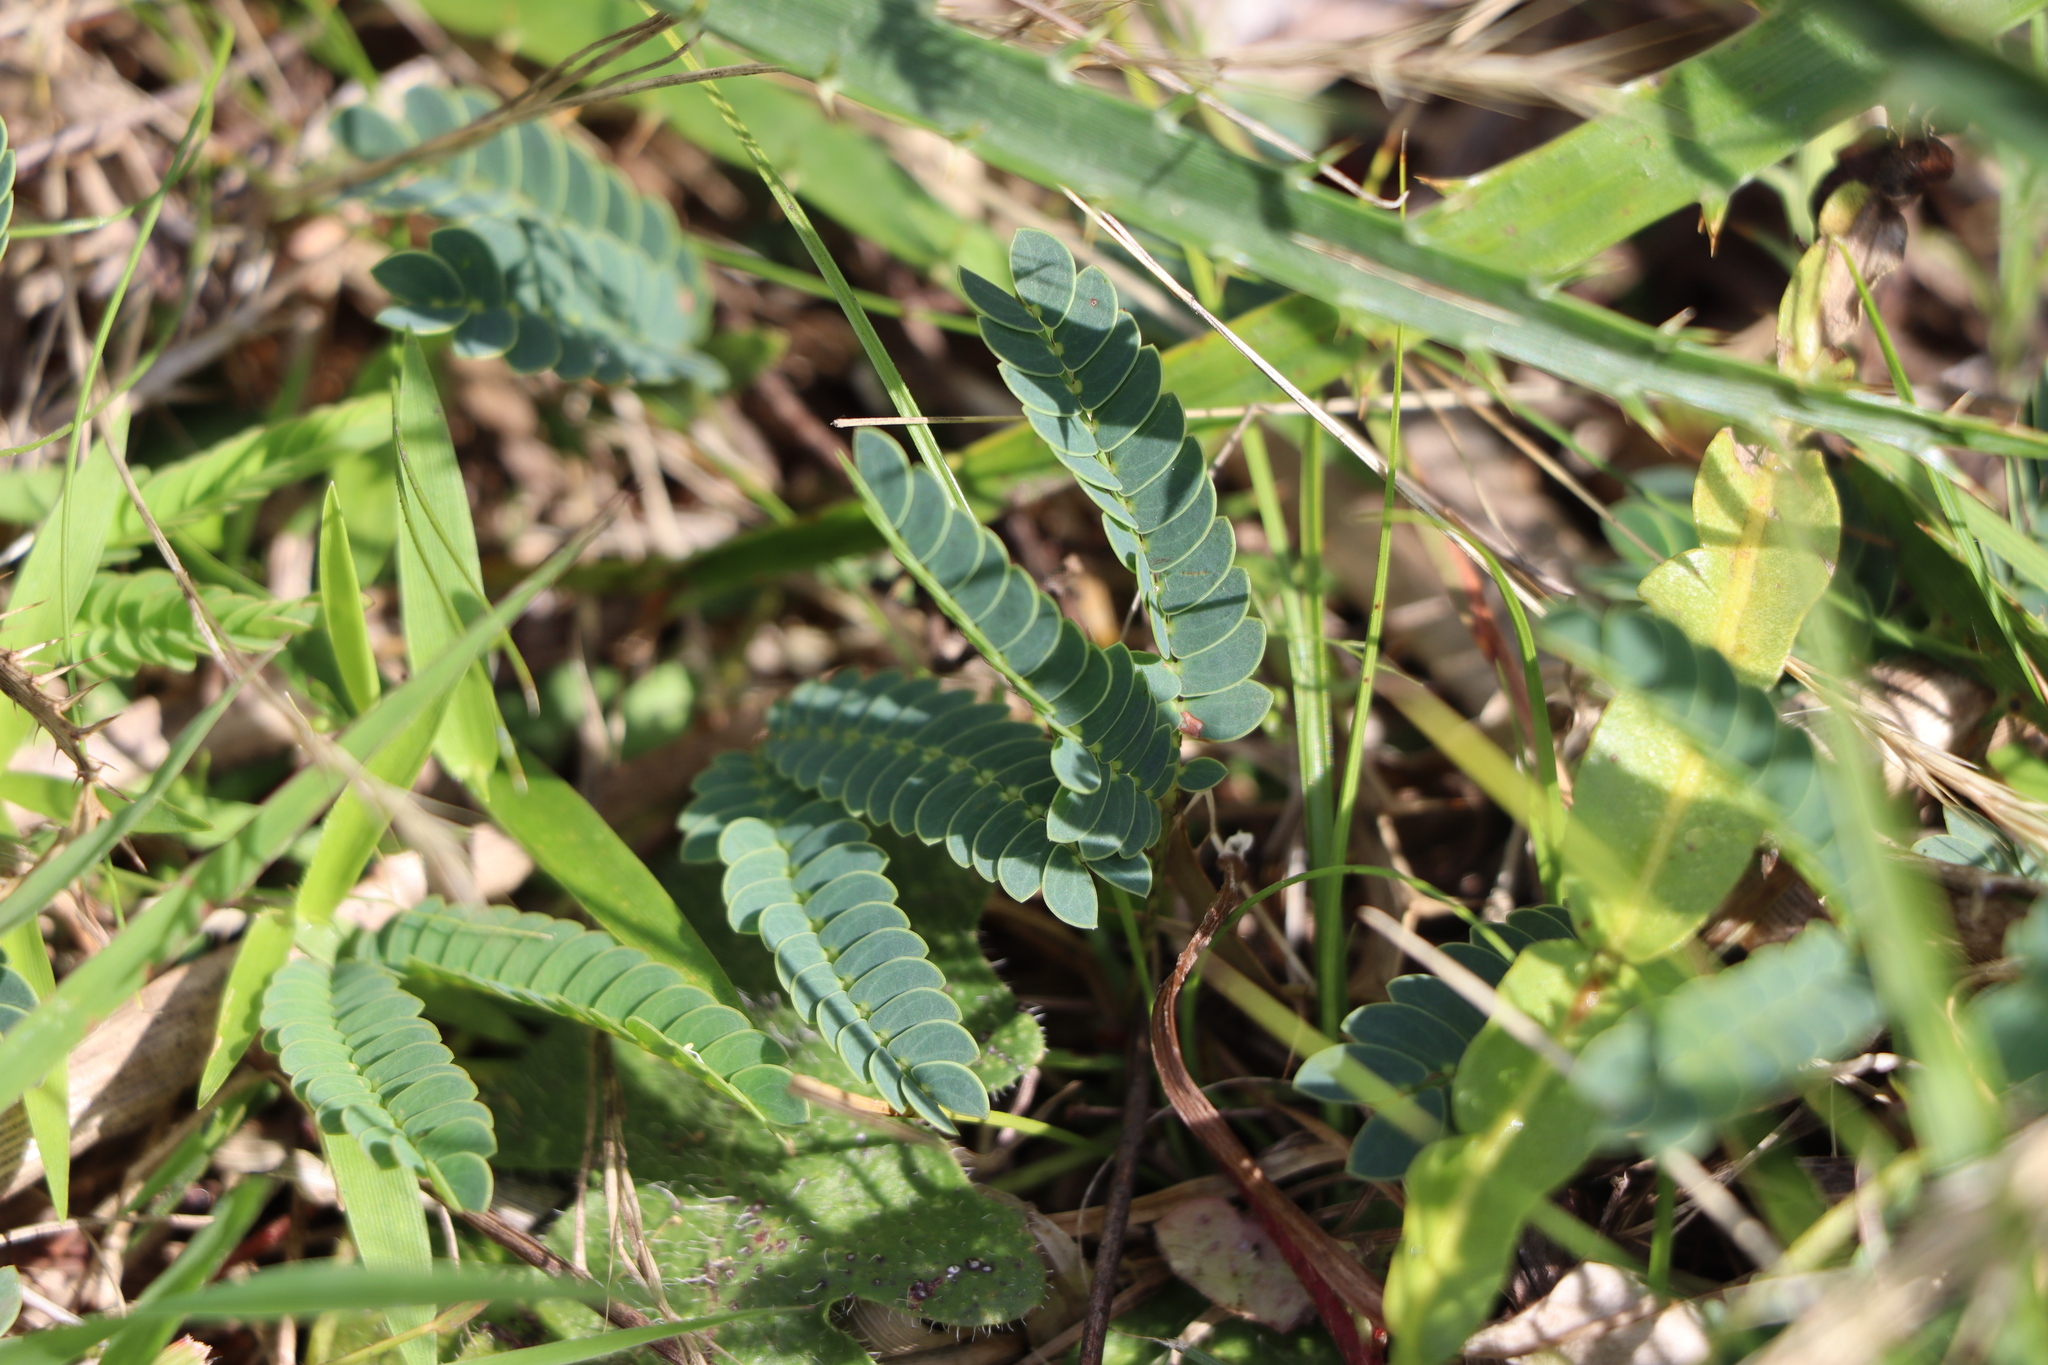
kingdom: Plantae
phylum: Tracheophyta
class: Magnoliopsida
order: Fabales
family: Fabaceae
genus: Mimosa
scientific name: Mimosa dutrae
